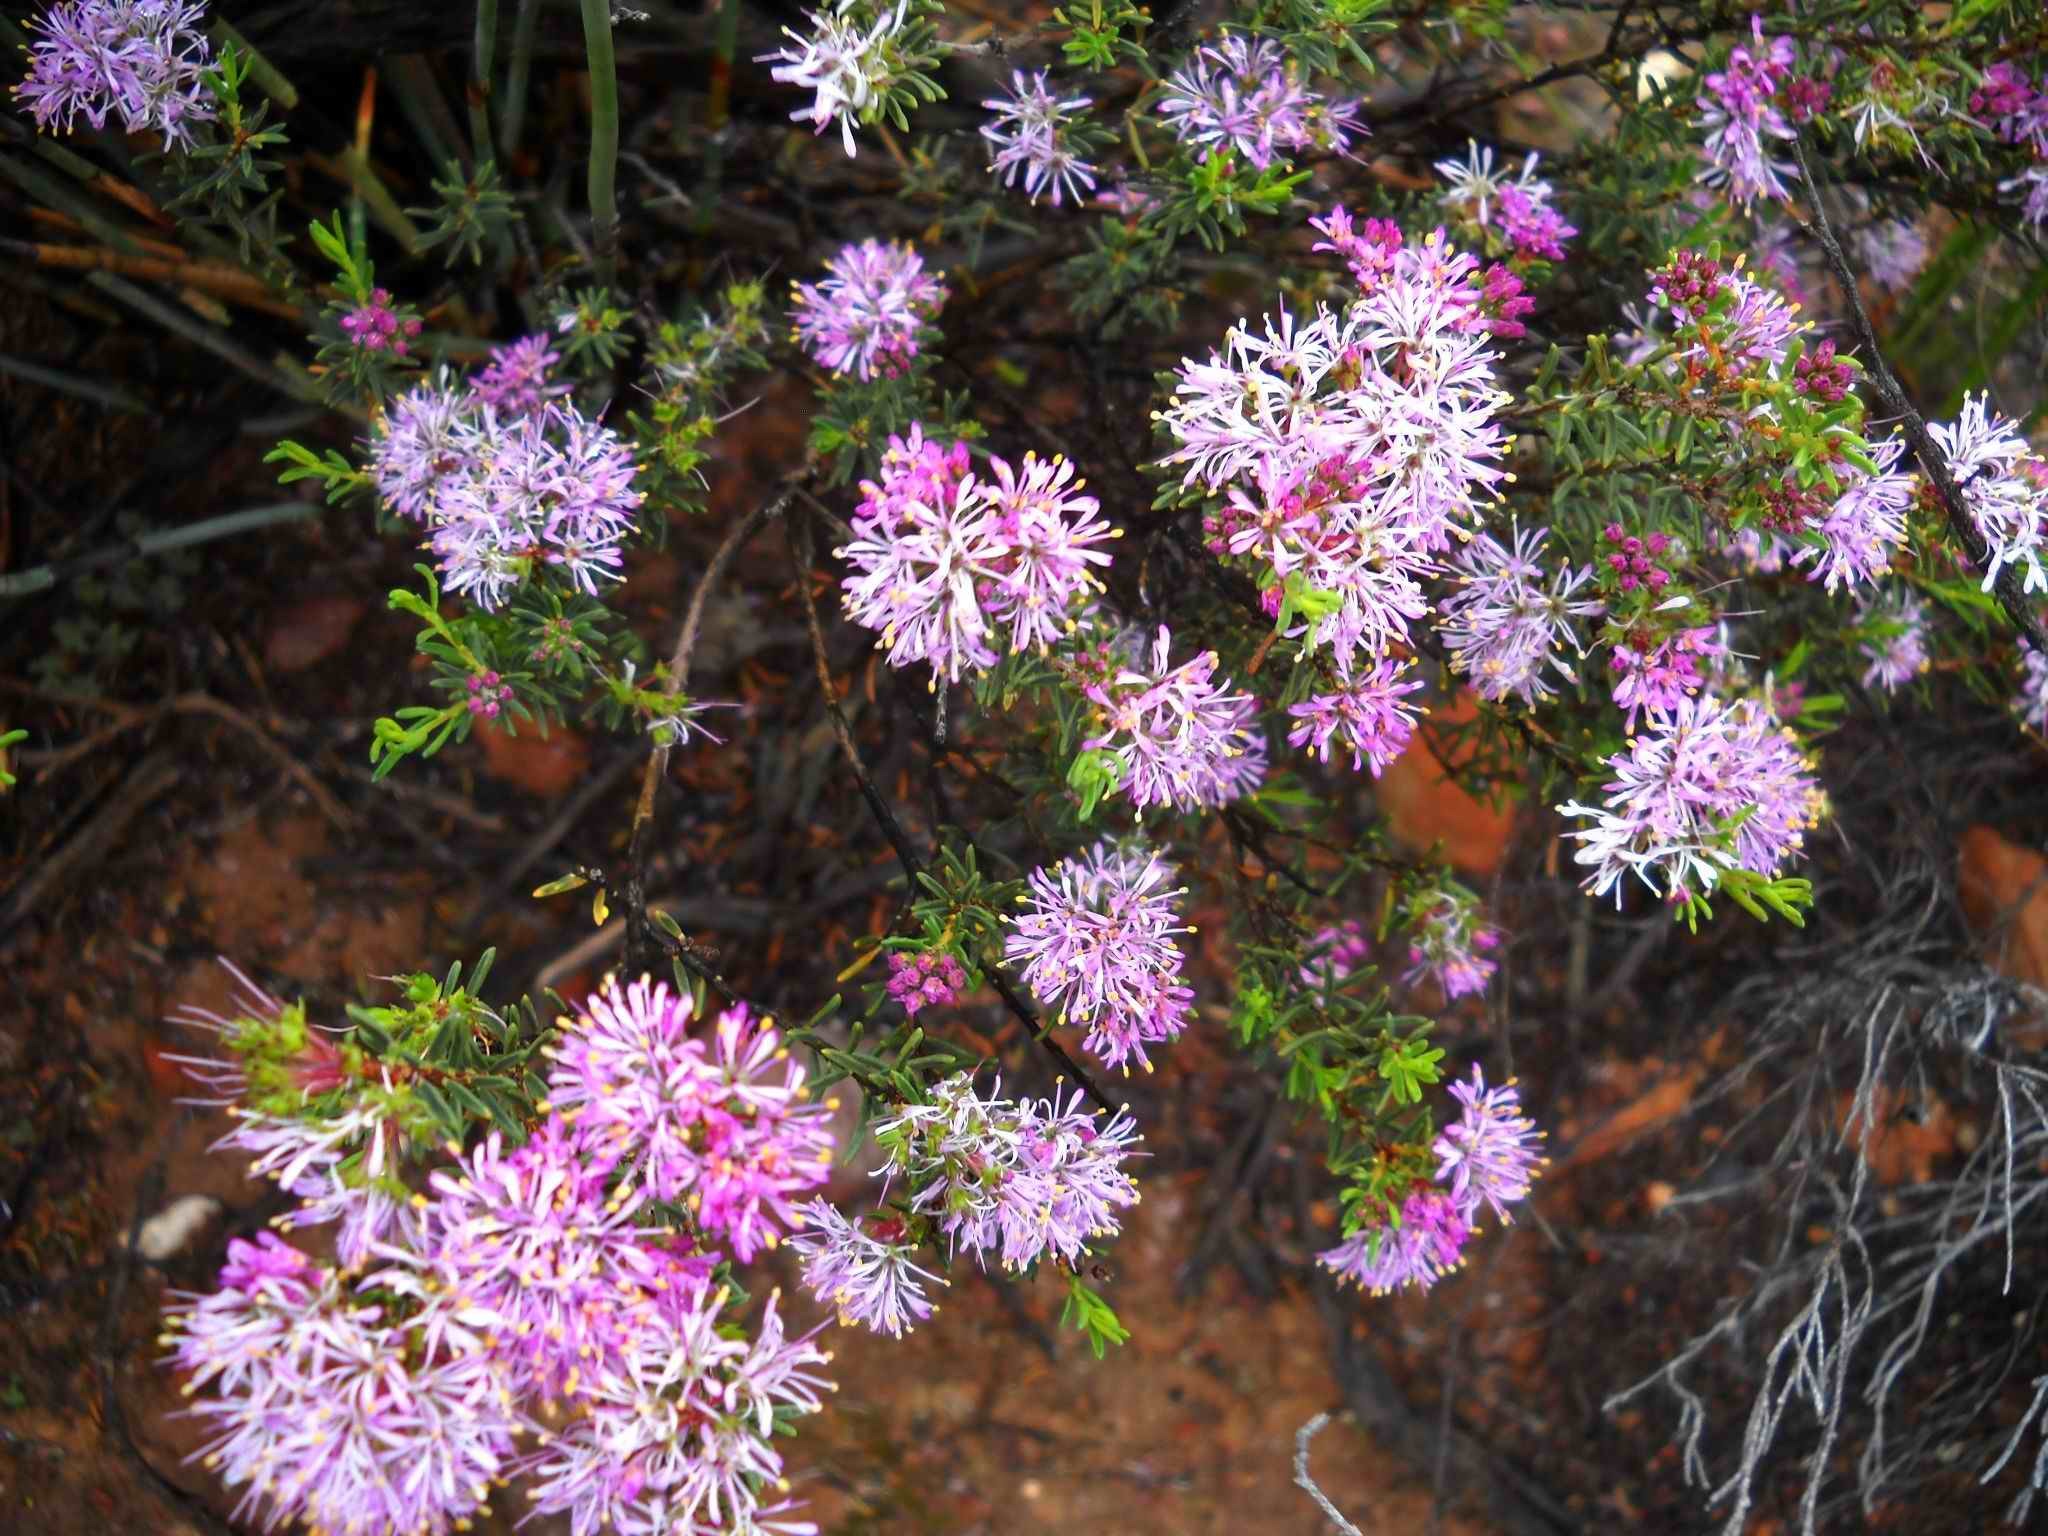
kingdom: Plantae
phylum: Tracheophyta
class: Magnoliopsida
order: Sapindales
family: Rutaceae
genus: Agathosma
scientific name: Agathosma
